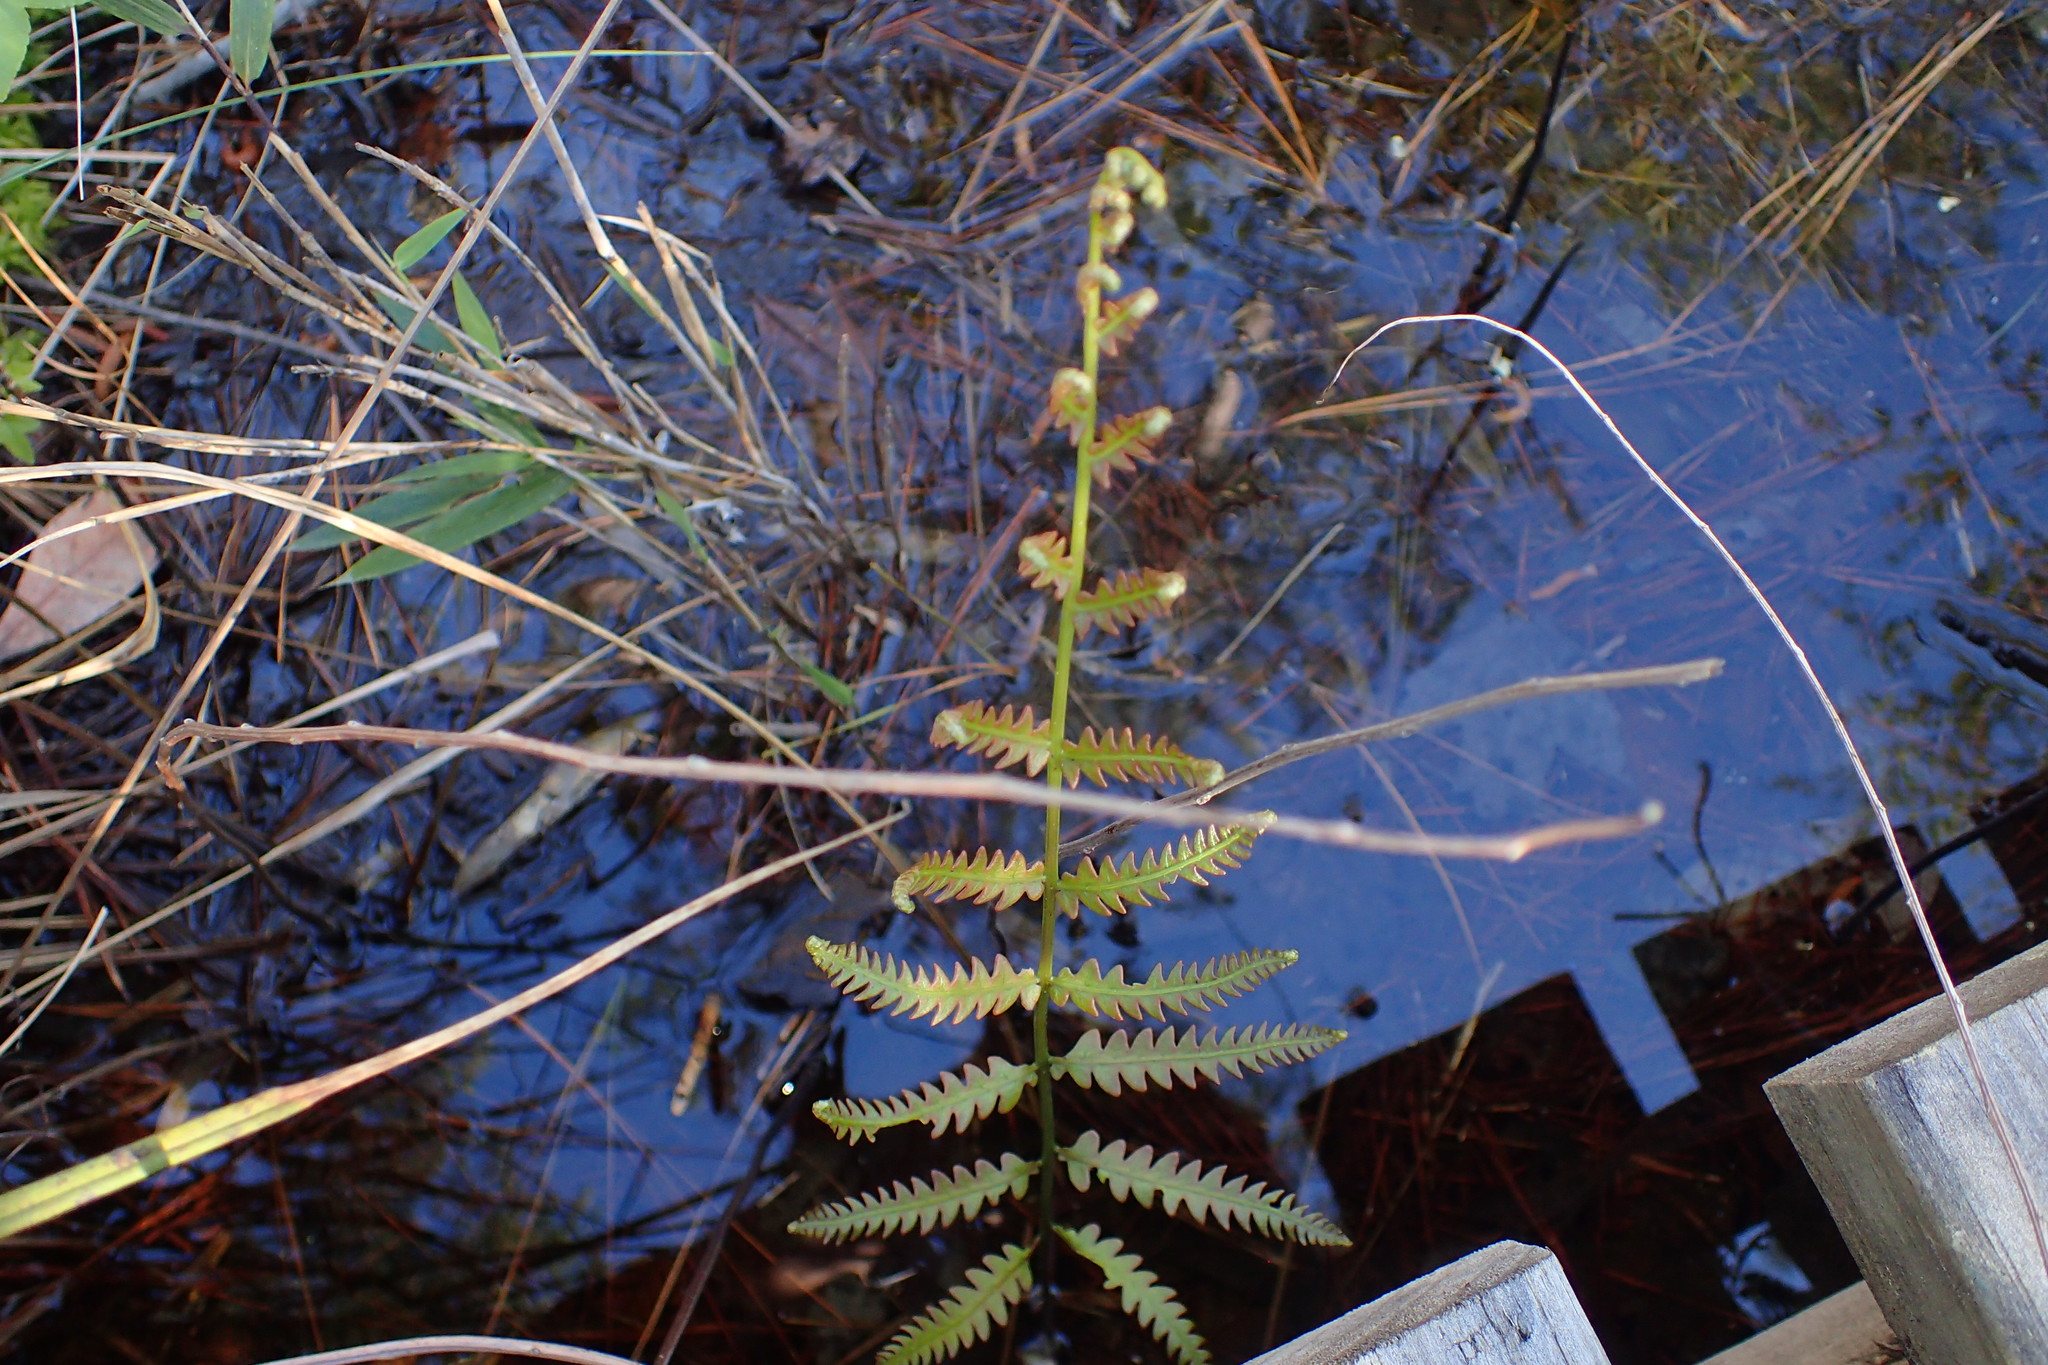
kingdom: Plantae
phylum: Tracheophyta
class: Polypodiopsida
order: Polypodiales
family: Blechnaceae
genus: Anchistea
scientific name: Anchistea virginica
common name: Virginia chain fern
